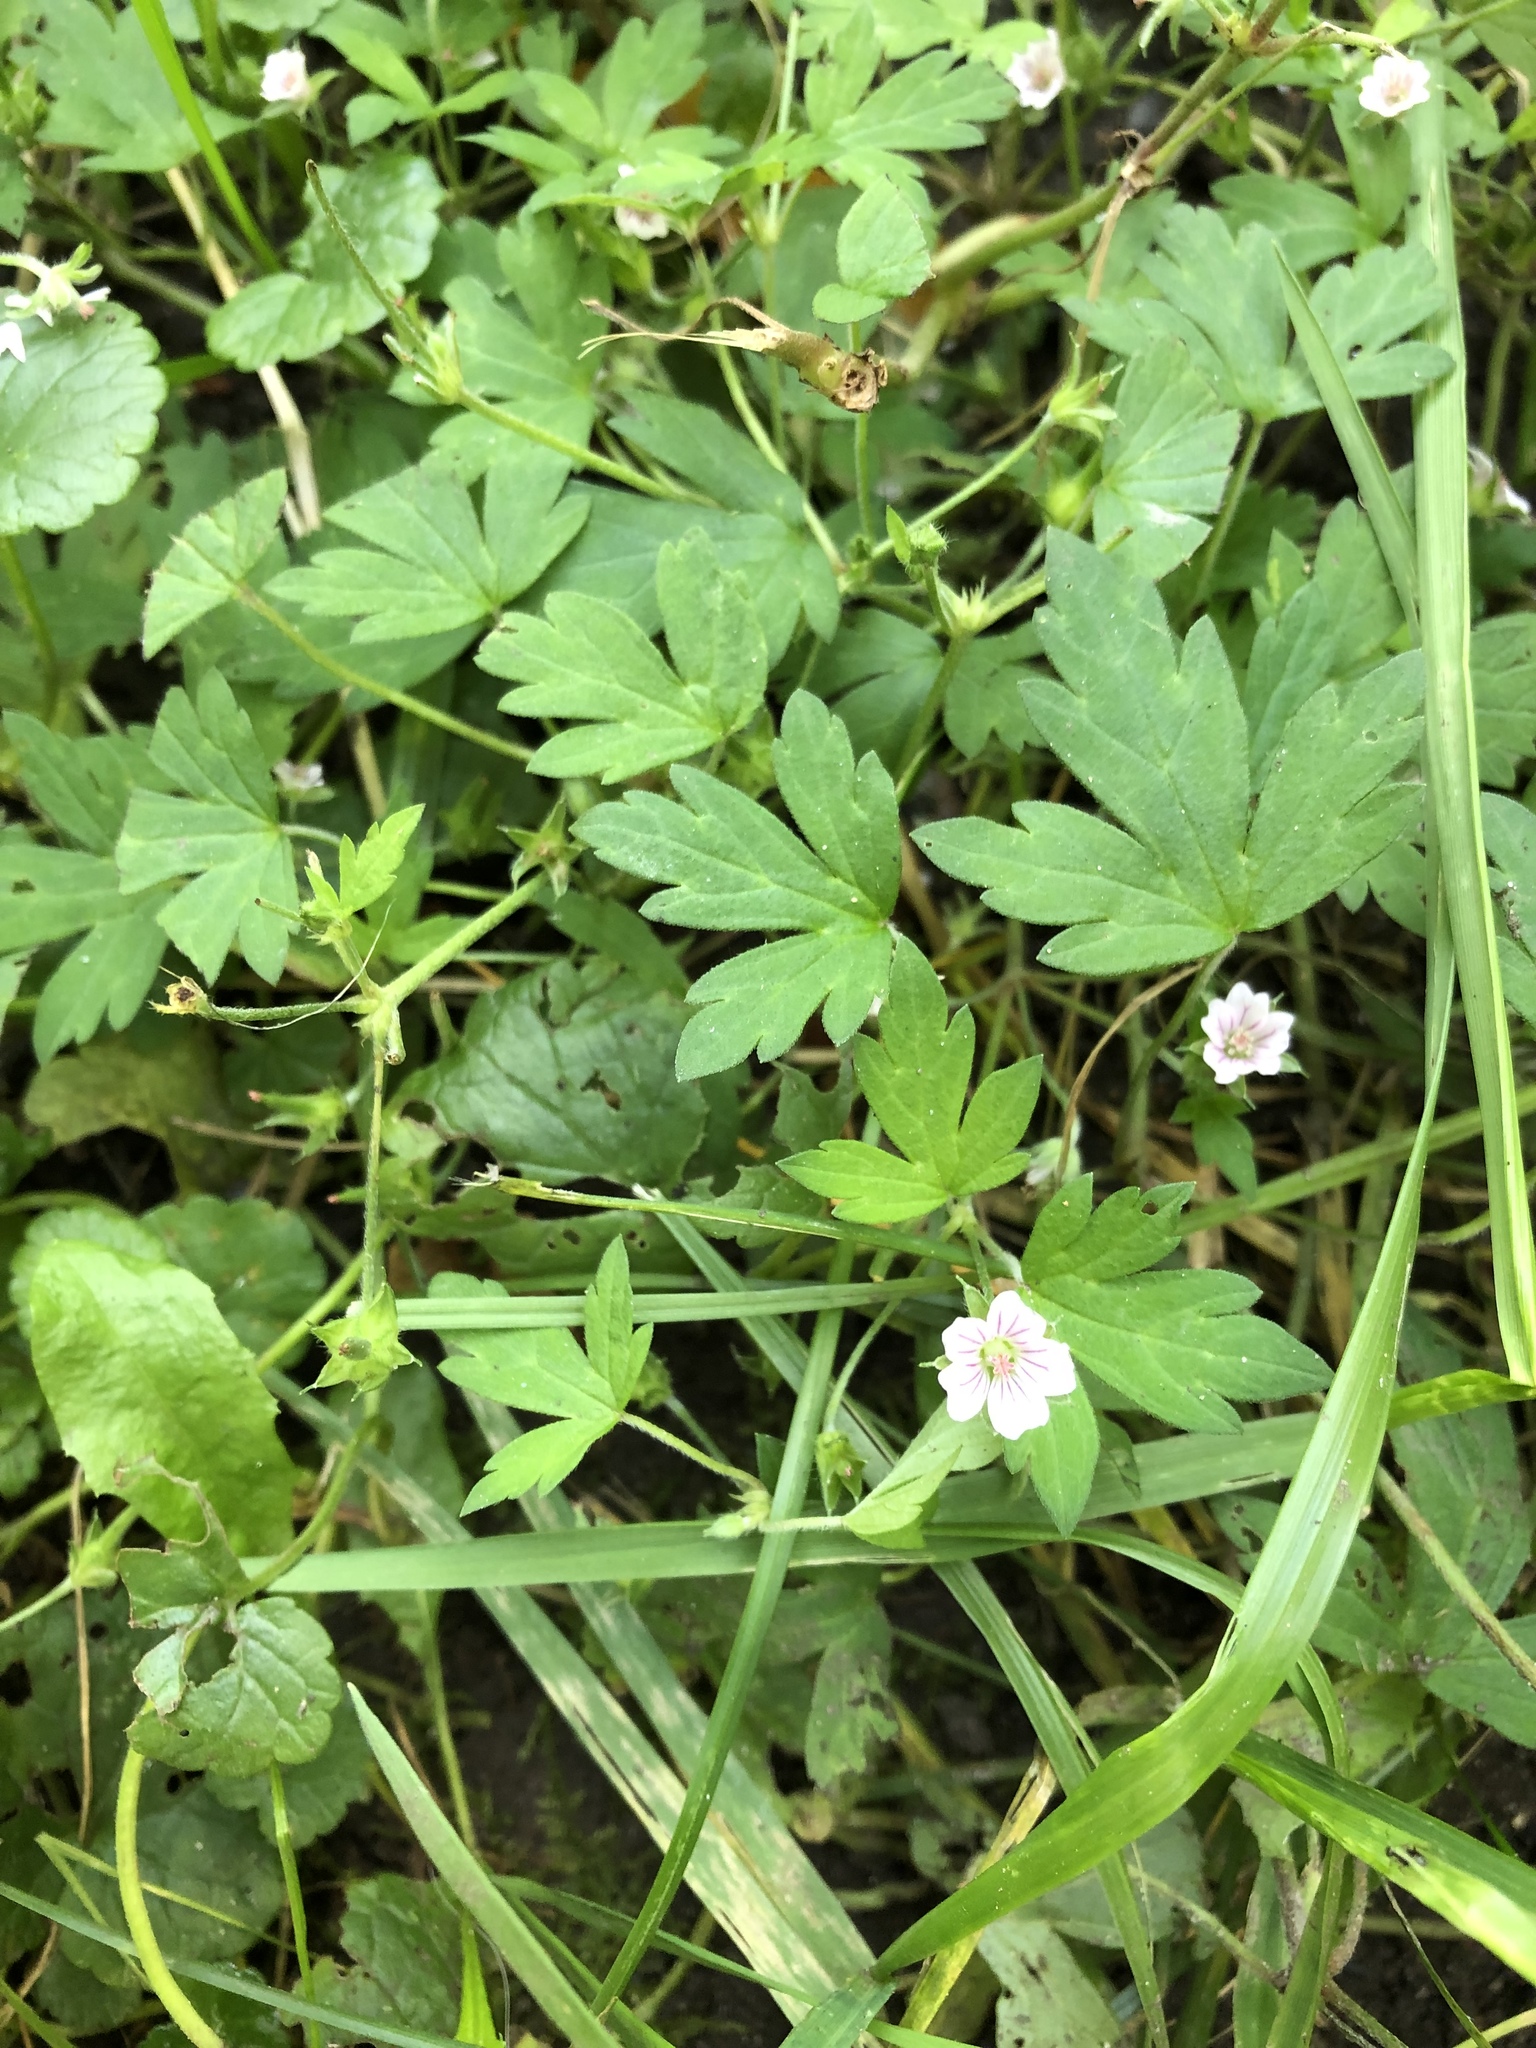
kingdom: Plantae
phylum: Tracheophyta
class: Magnoliopsida
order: Geraniales
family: Geraniaceae
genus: Geranium
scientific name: Geranium sibiricum
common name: Siberian crane's-bill
